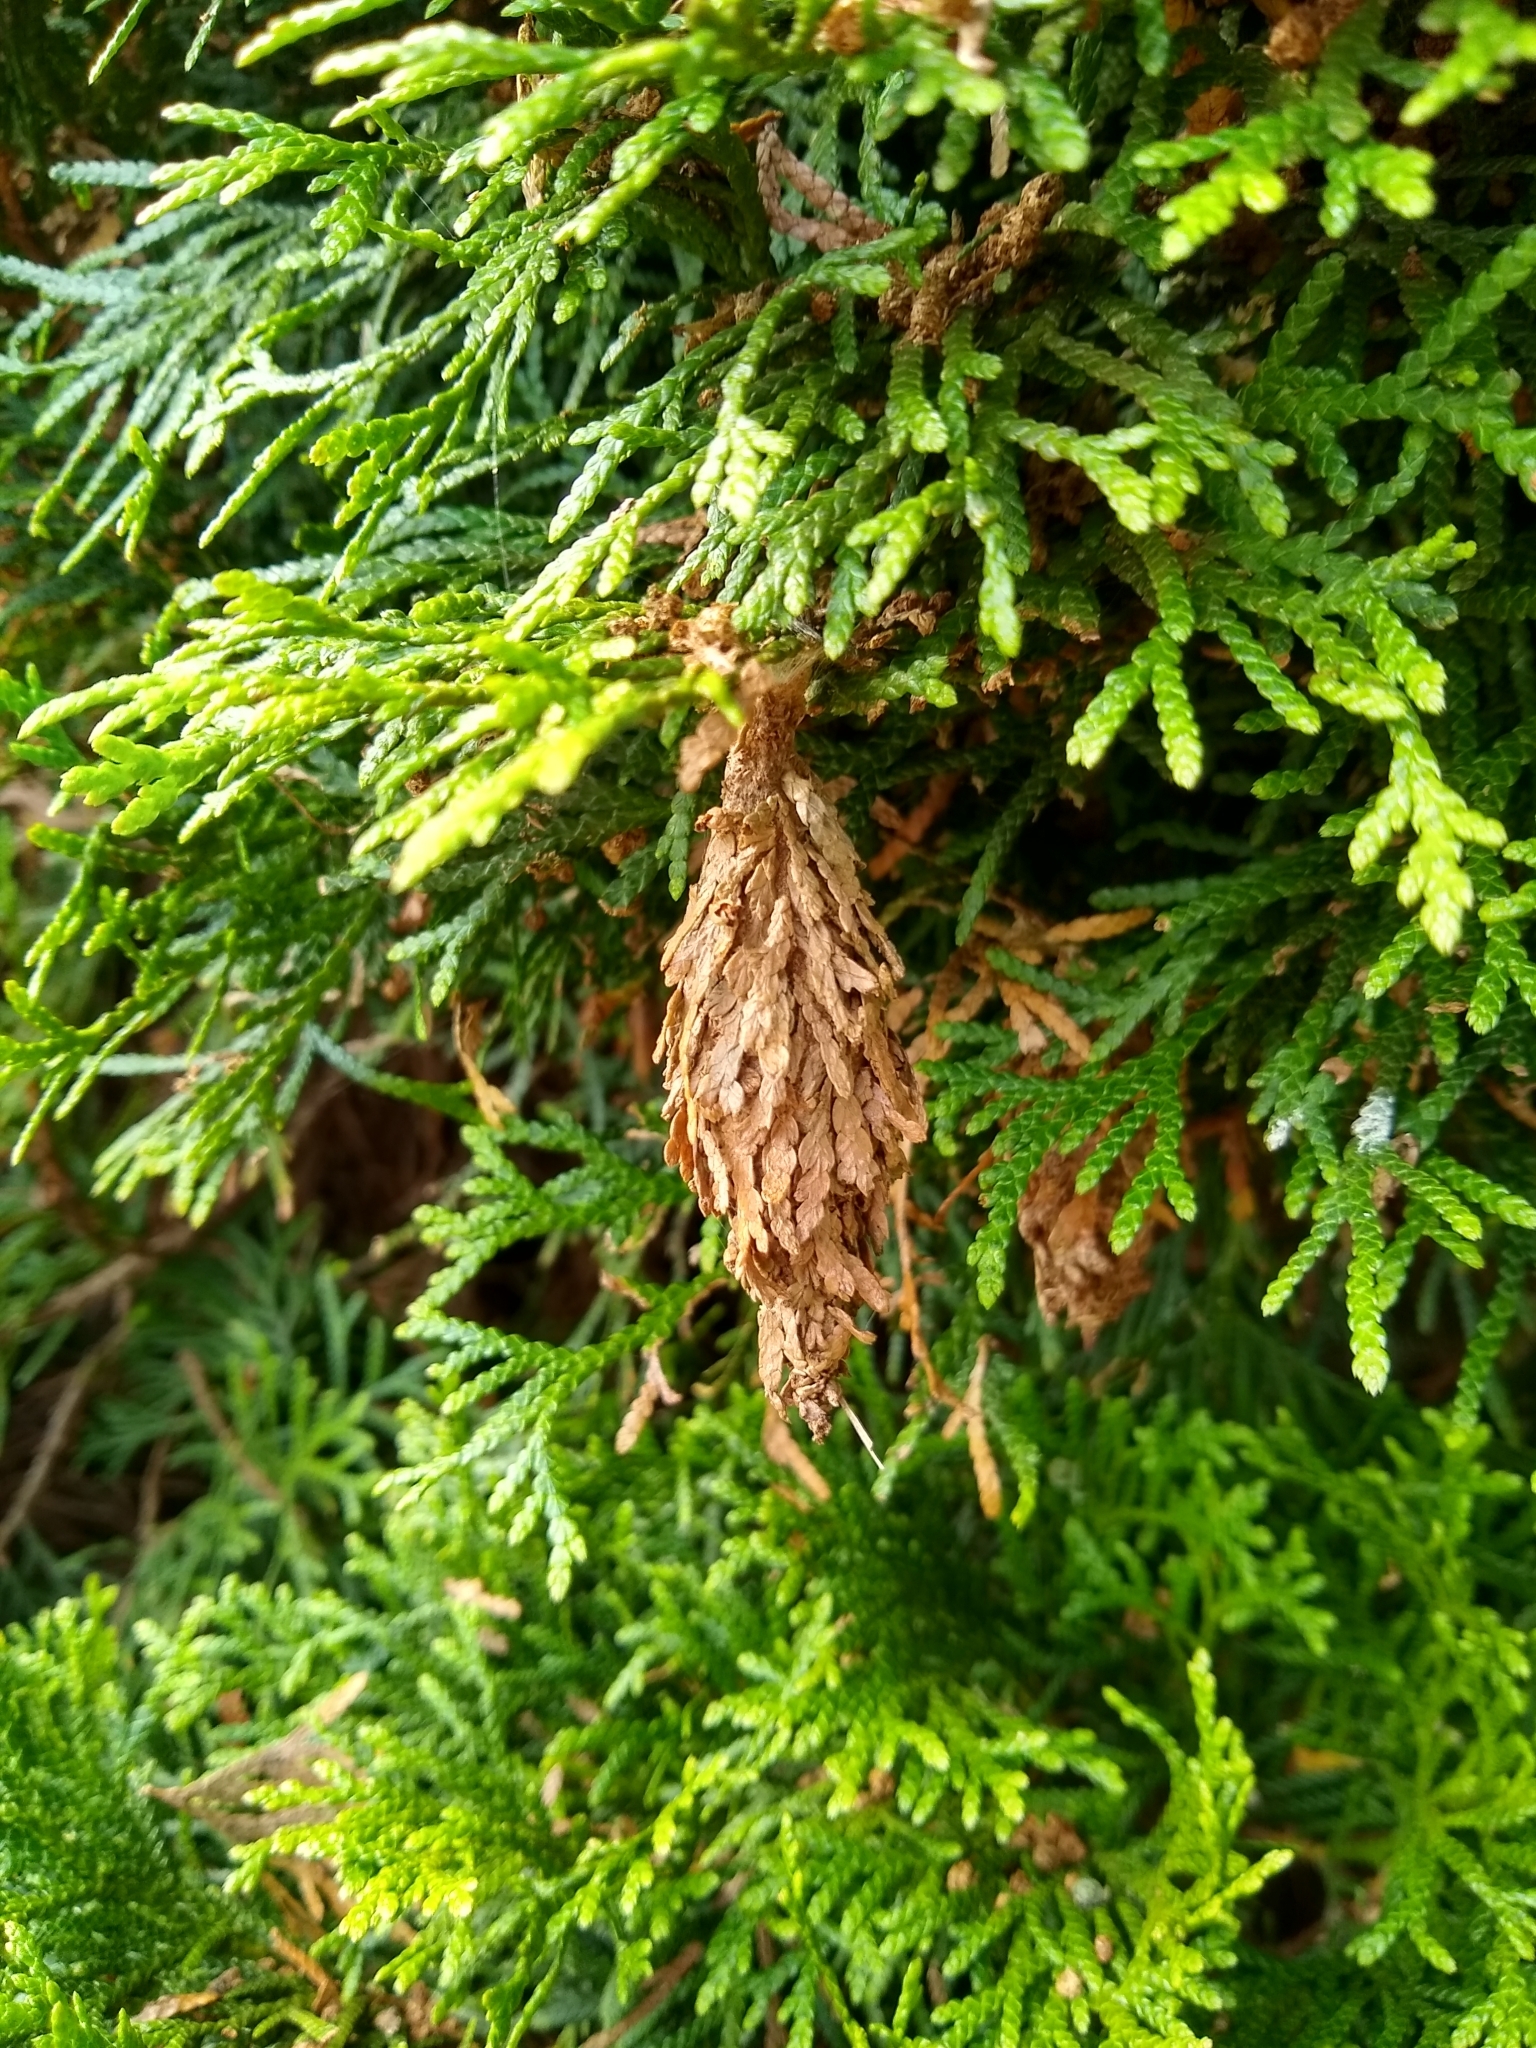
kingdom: Animalia
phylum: Arthropoda
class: Insecta
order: Lepidoptera
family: Psychidae
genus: Thyridopteryx
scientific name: Thyridopteryx ephemeraeformis
